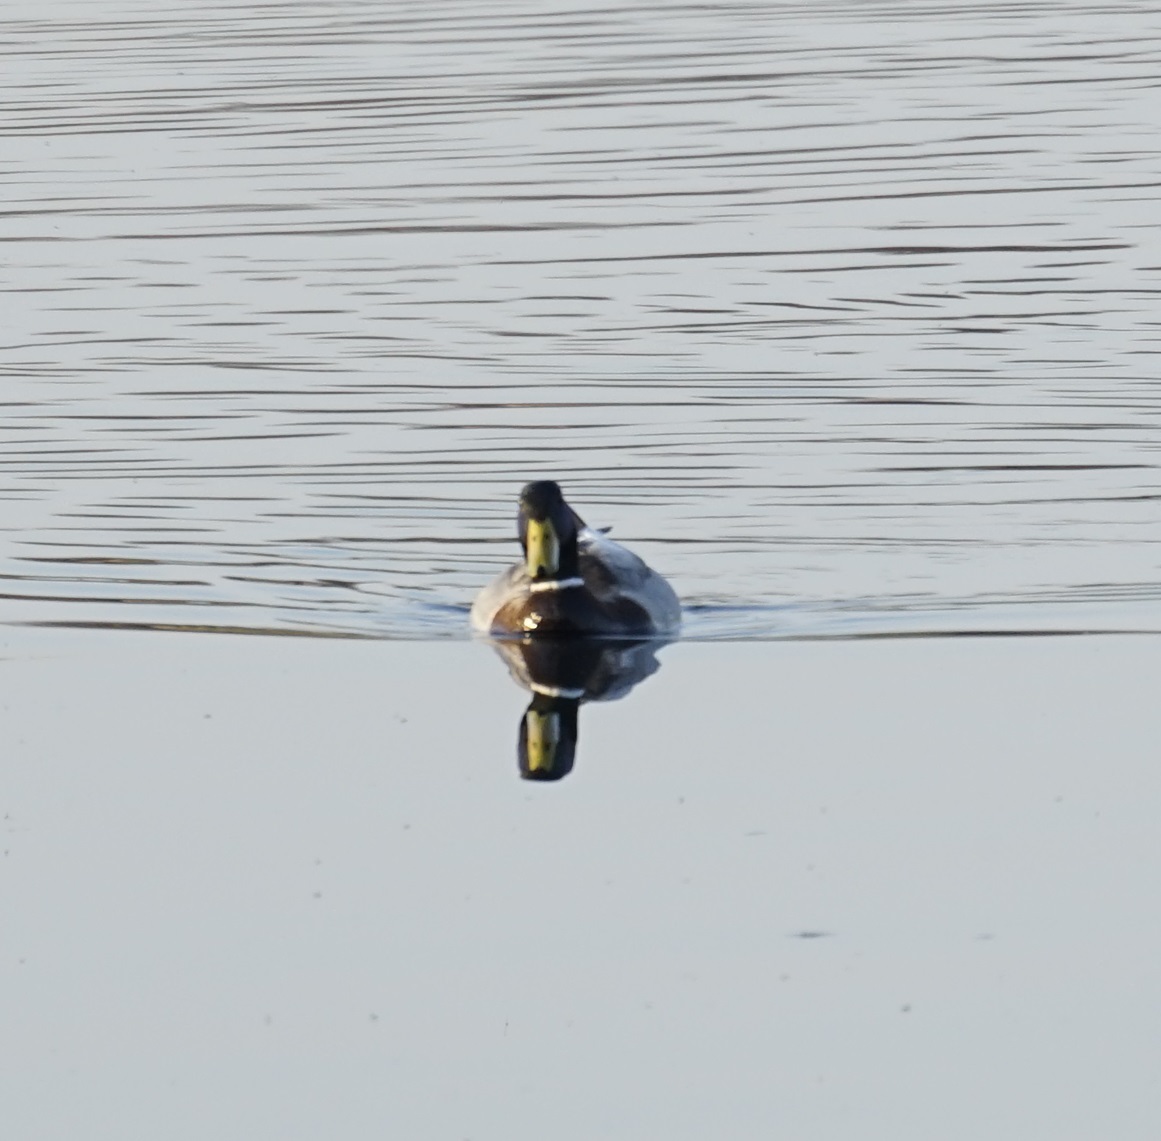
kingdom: Animalia
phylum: Chordata
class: Aves
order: Anseriformes
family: Anatidae
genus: Anas
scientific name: Anas platyrhynchos
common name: Mallard
